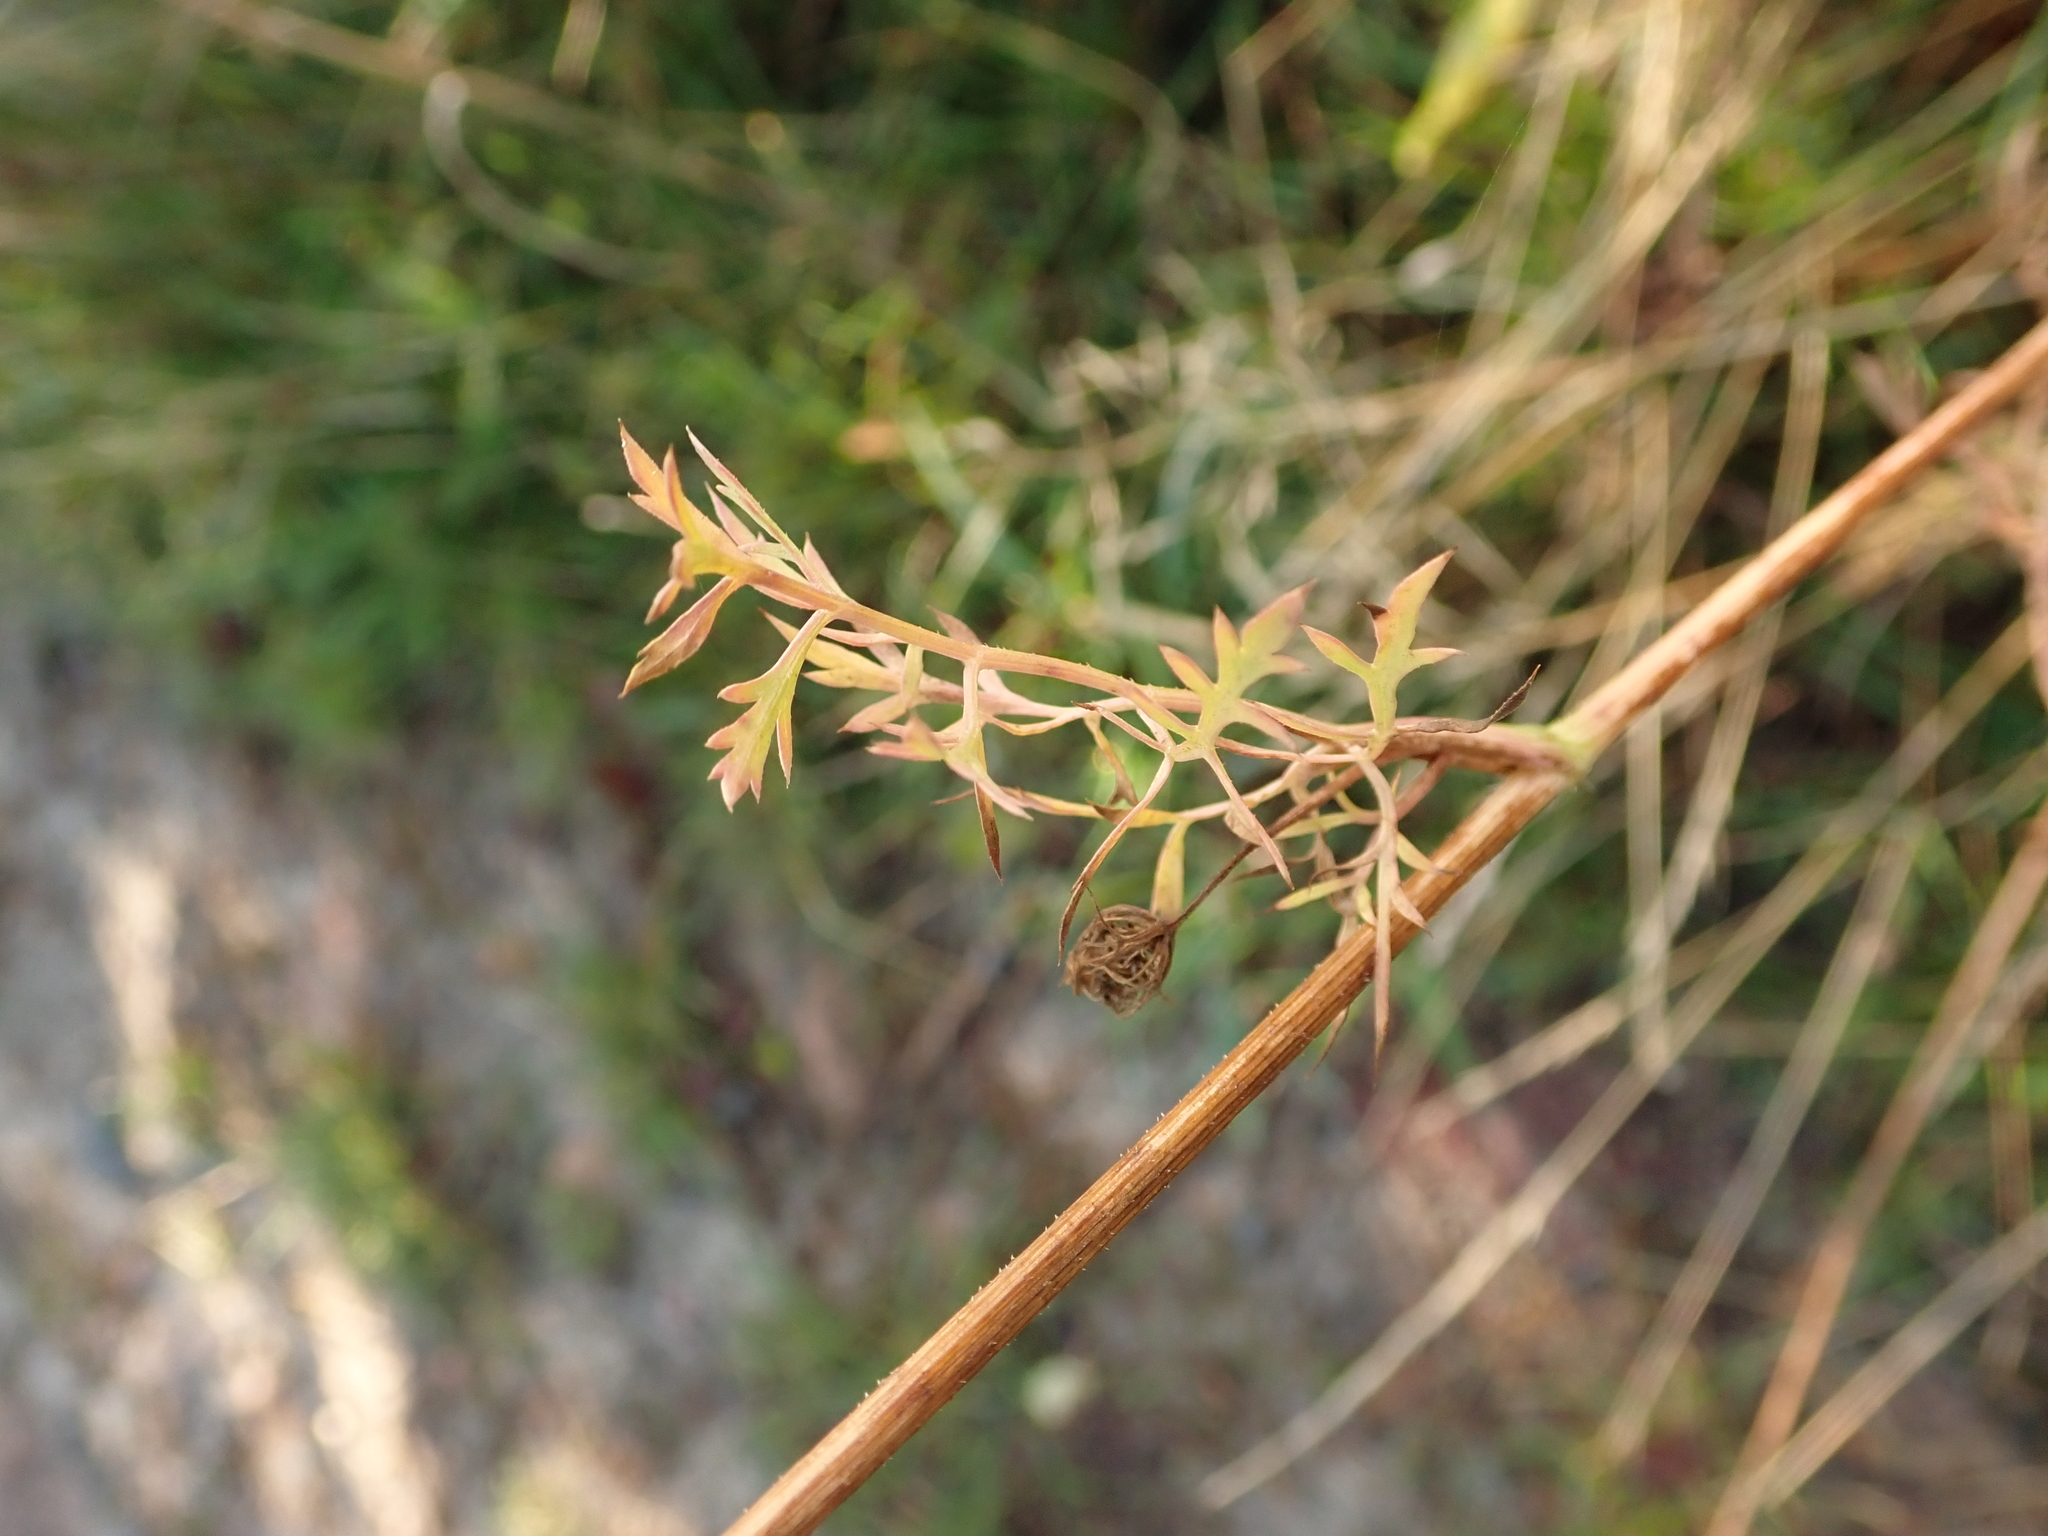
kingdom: Plantae
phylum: Tracheophyta
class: Magnoliopsida
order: Apiales
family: Apiaceae
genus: Daucus
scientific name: Daucus carota
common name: Wild carrot
